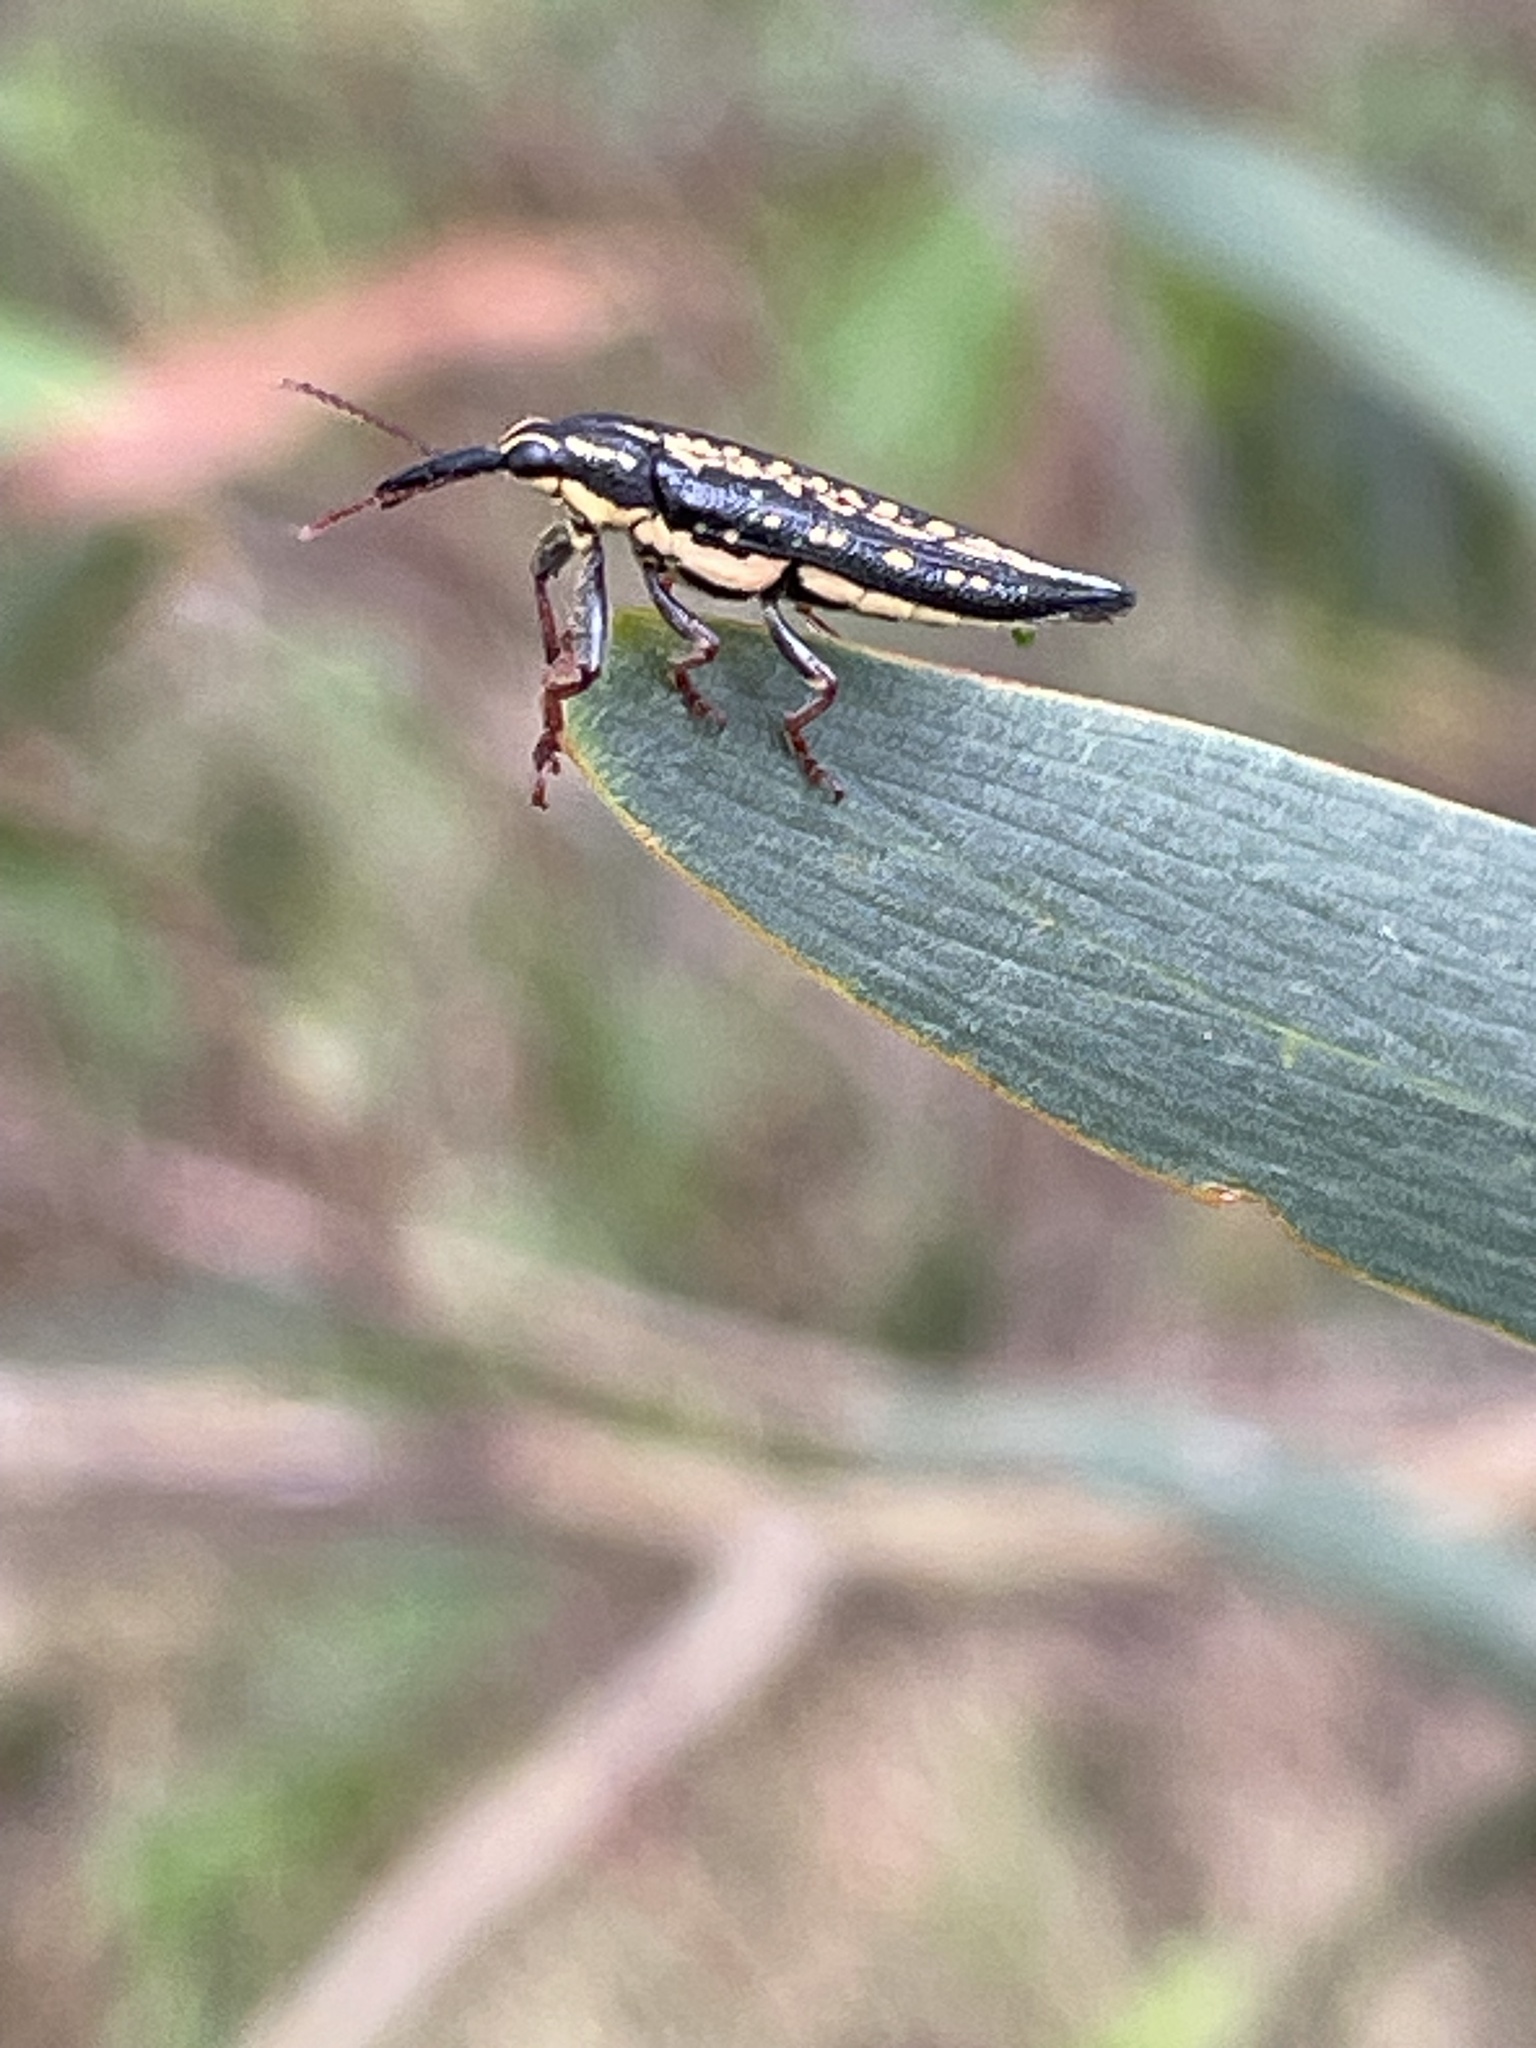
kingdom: Animalia
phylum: Arthropoda
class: Insecta
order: Coleoptera
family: Belidae
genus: Rhinotia
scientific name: Rhinotia lineata
